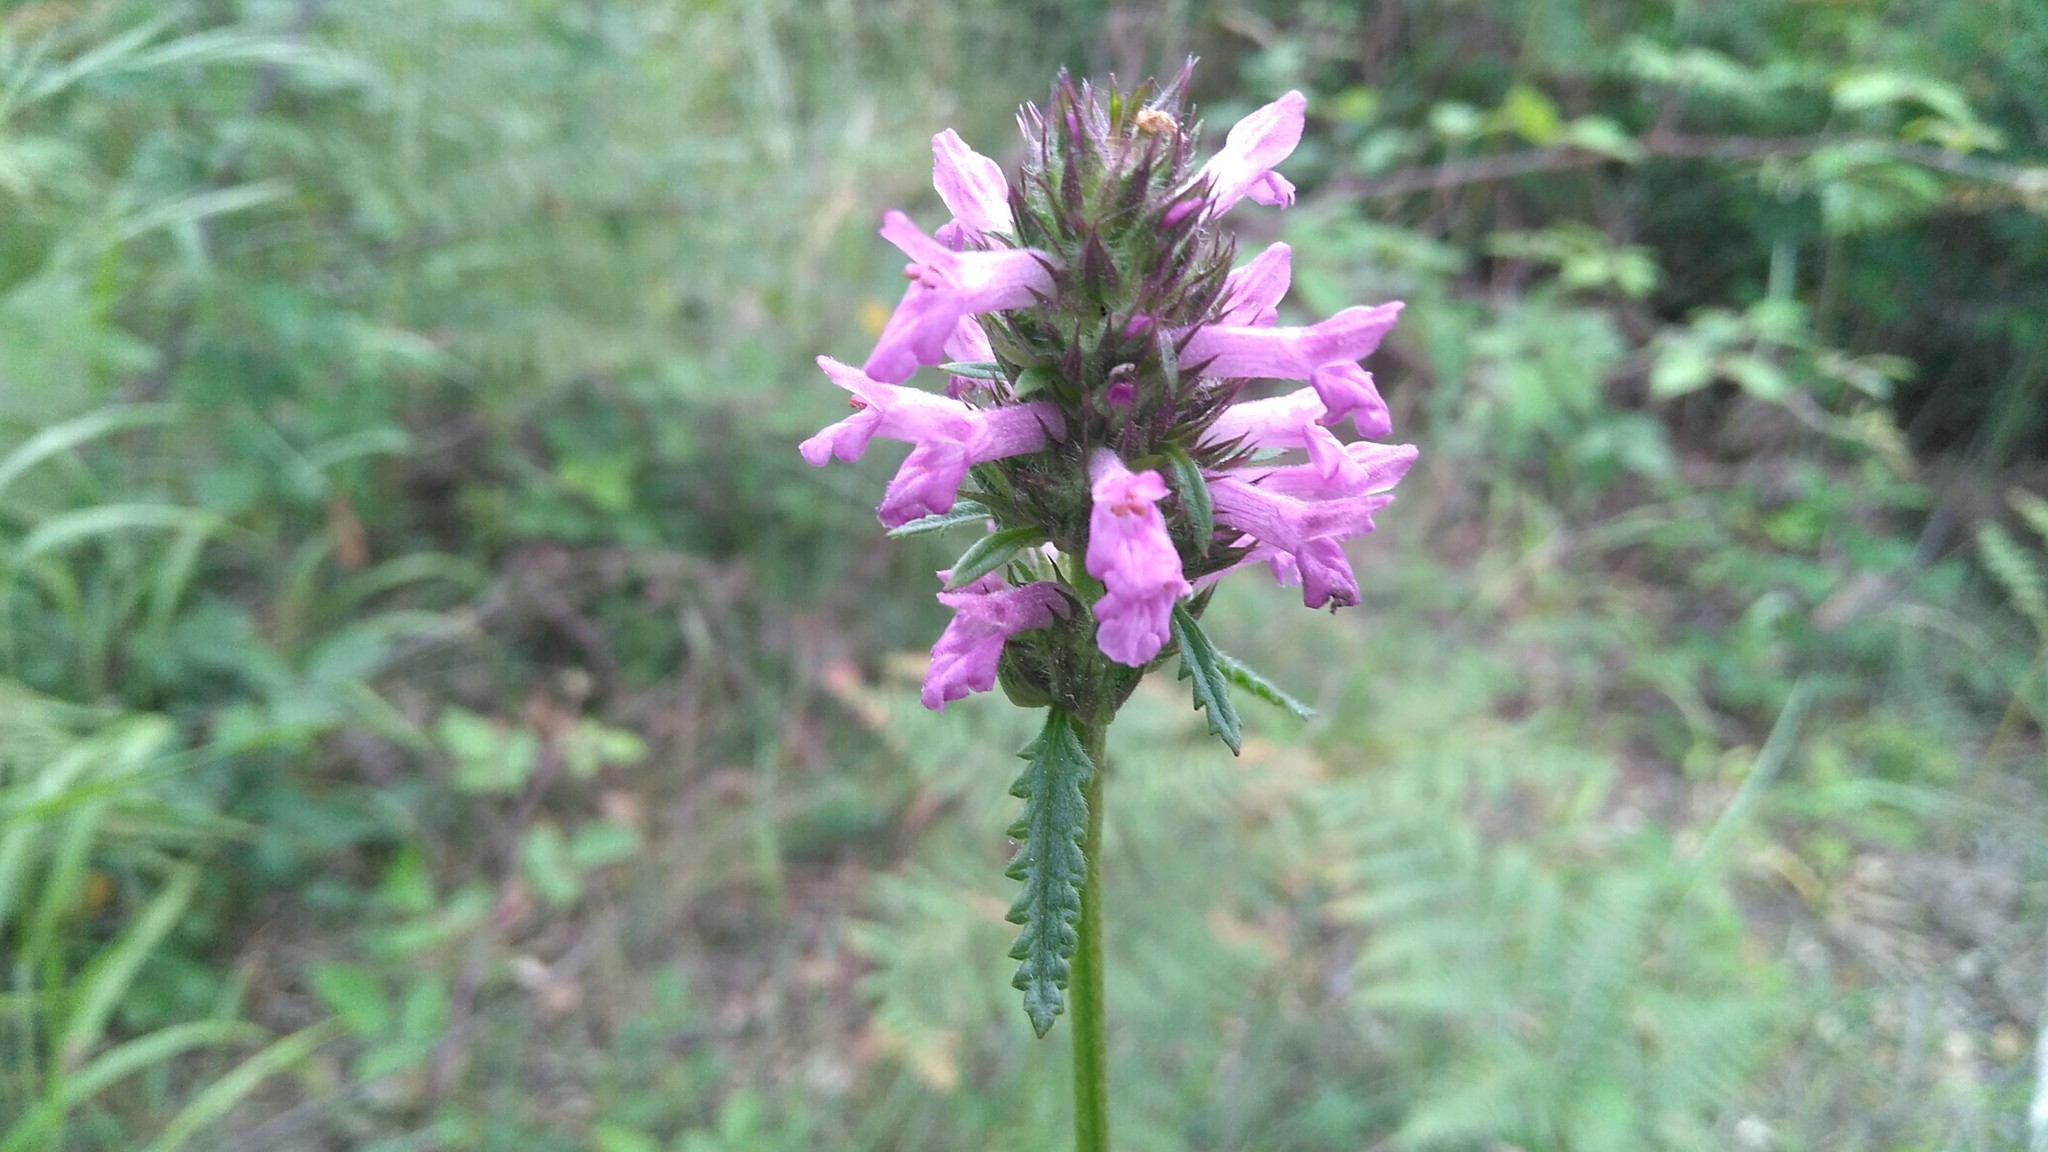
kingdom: Plantae
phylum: Tracheophyta
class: Magnoliopsida
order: Lamiales
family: Lamiaceae
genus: Betonica
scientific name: Betonica officinalis
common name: Bishop's-wort
